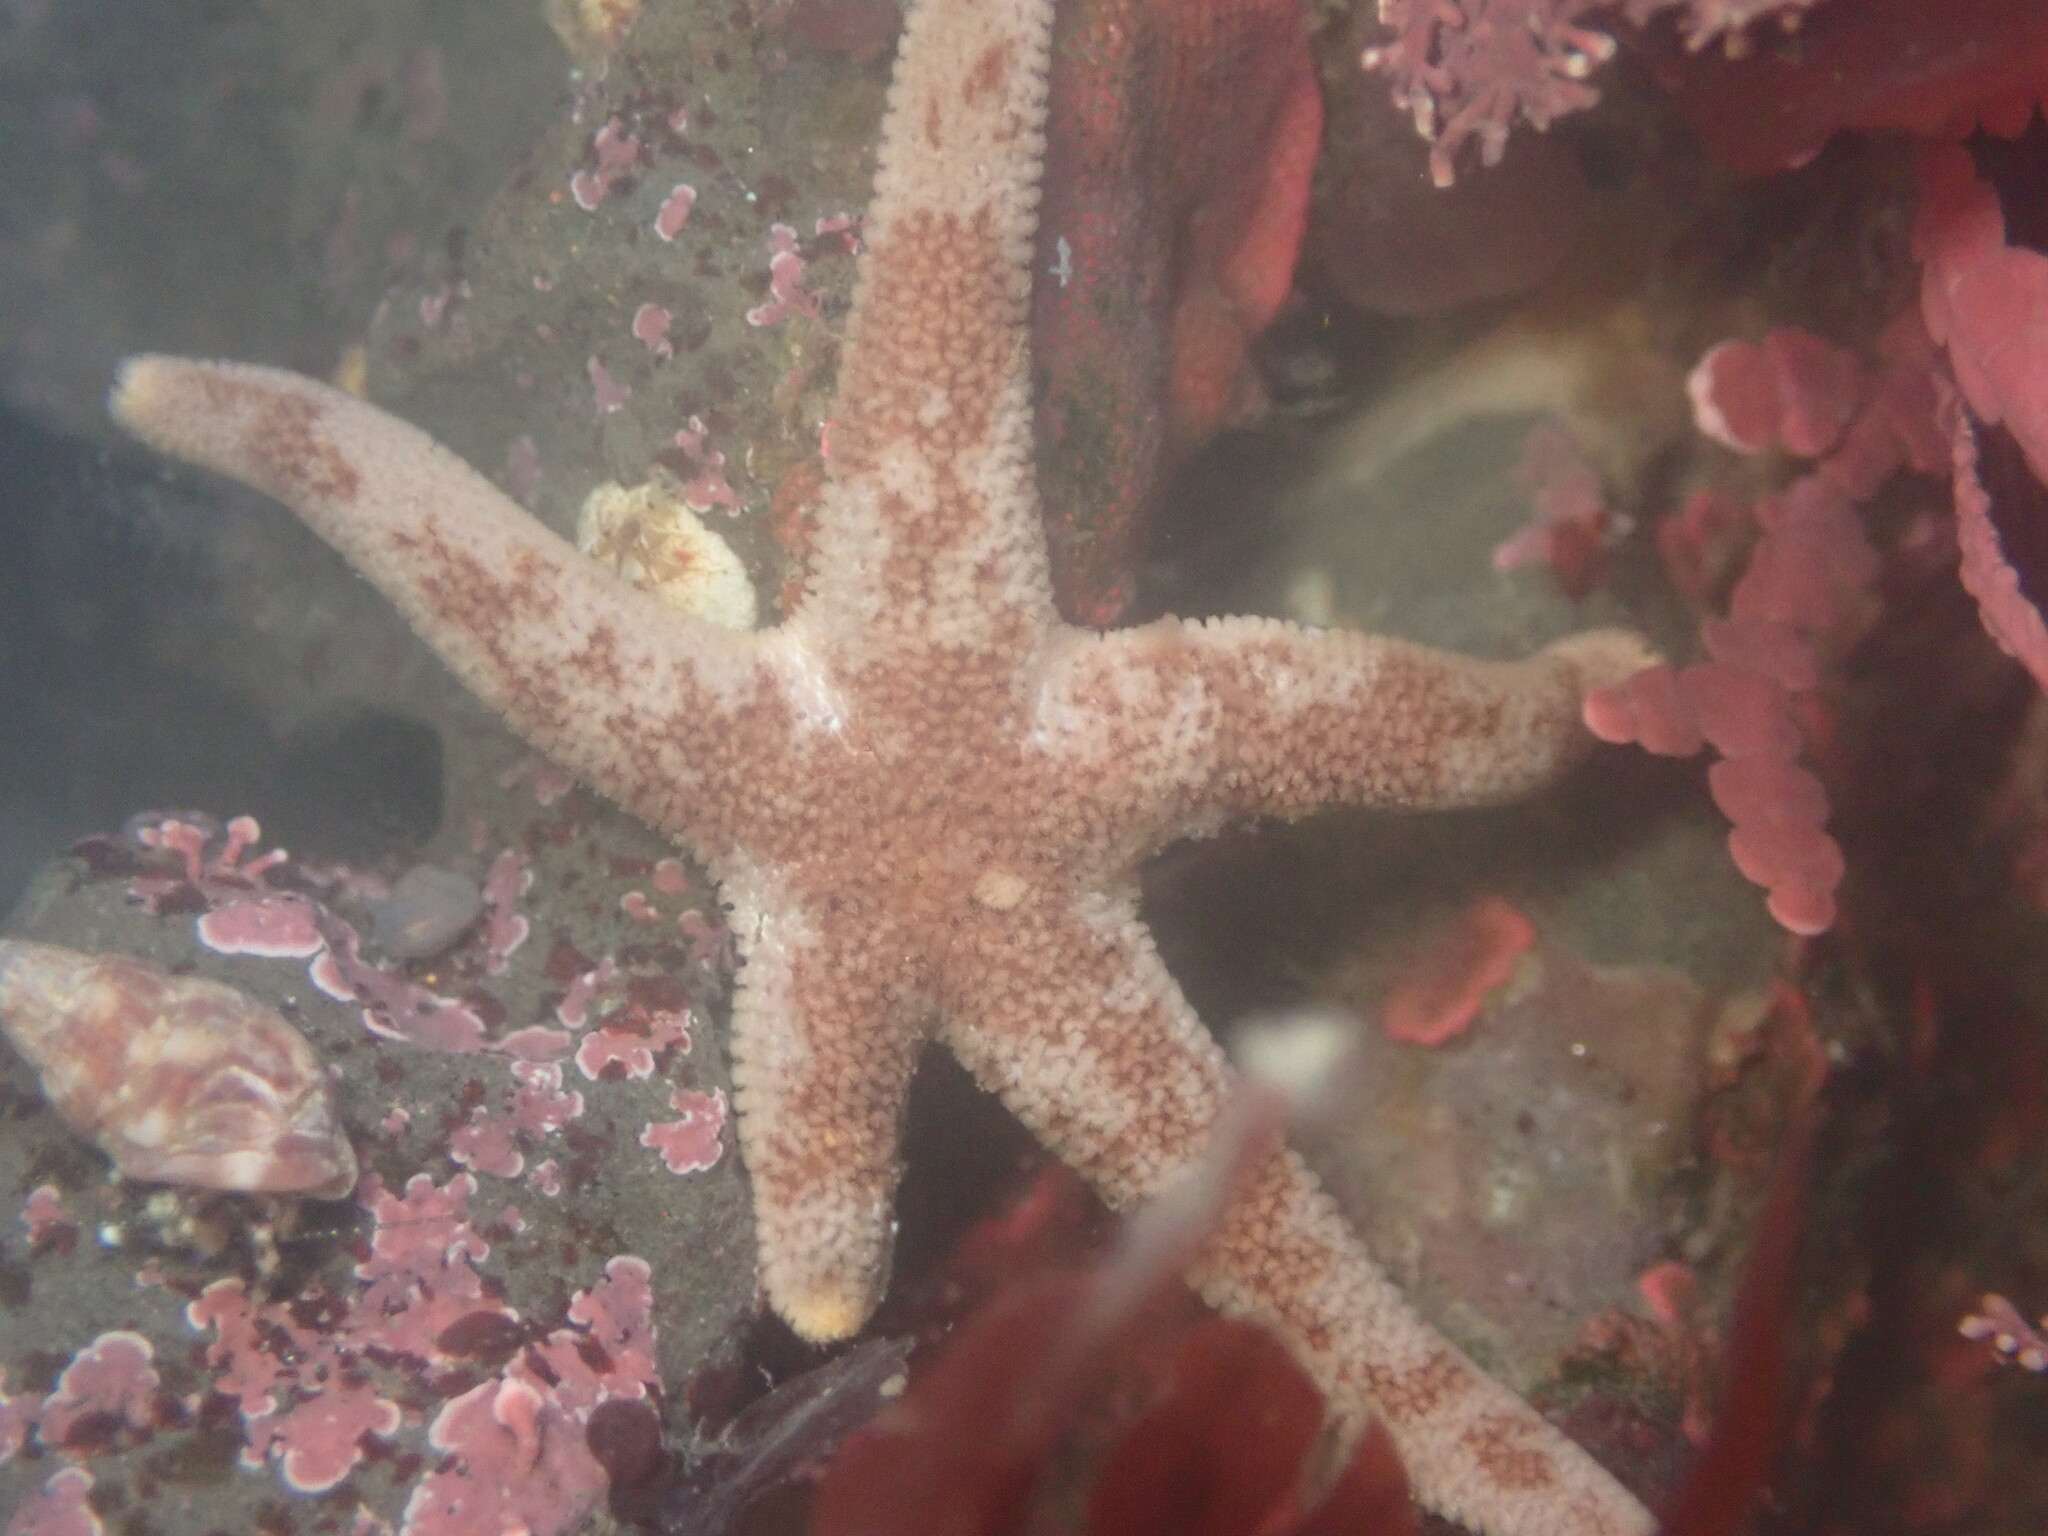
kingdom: Animalia
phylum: Echinodermata
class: Asteroidea
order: Spinulosida
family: Echinasteridae
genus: Henricia
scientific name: Henricia pumila
